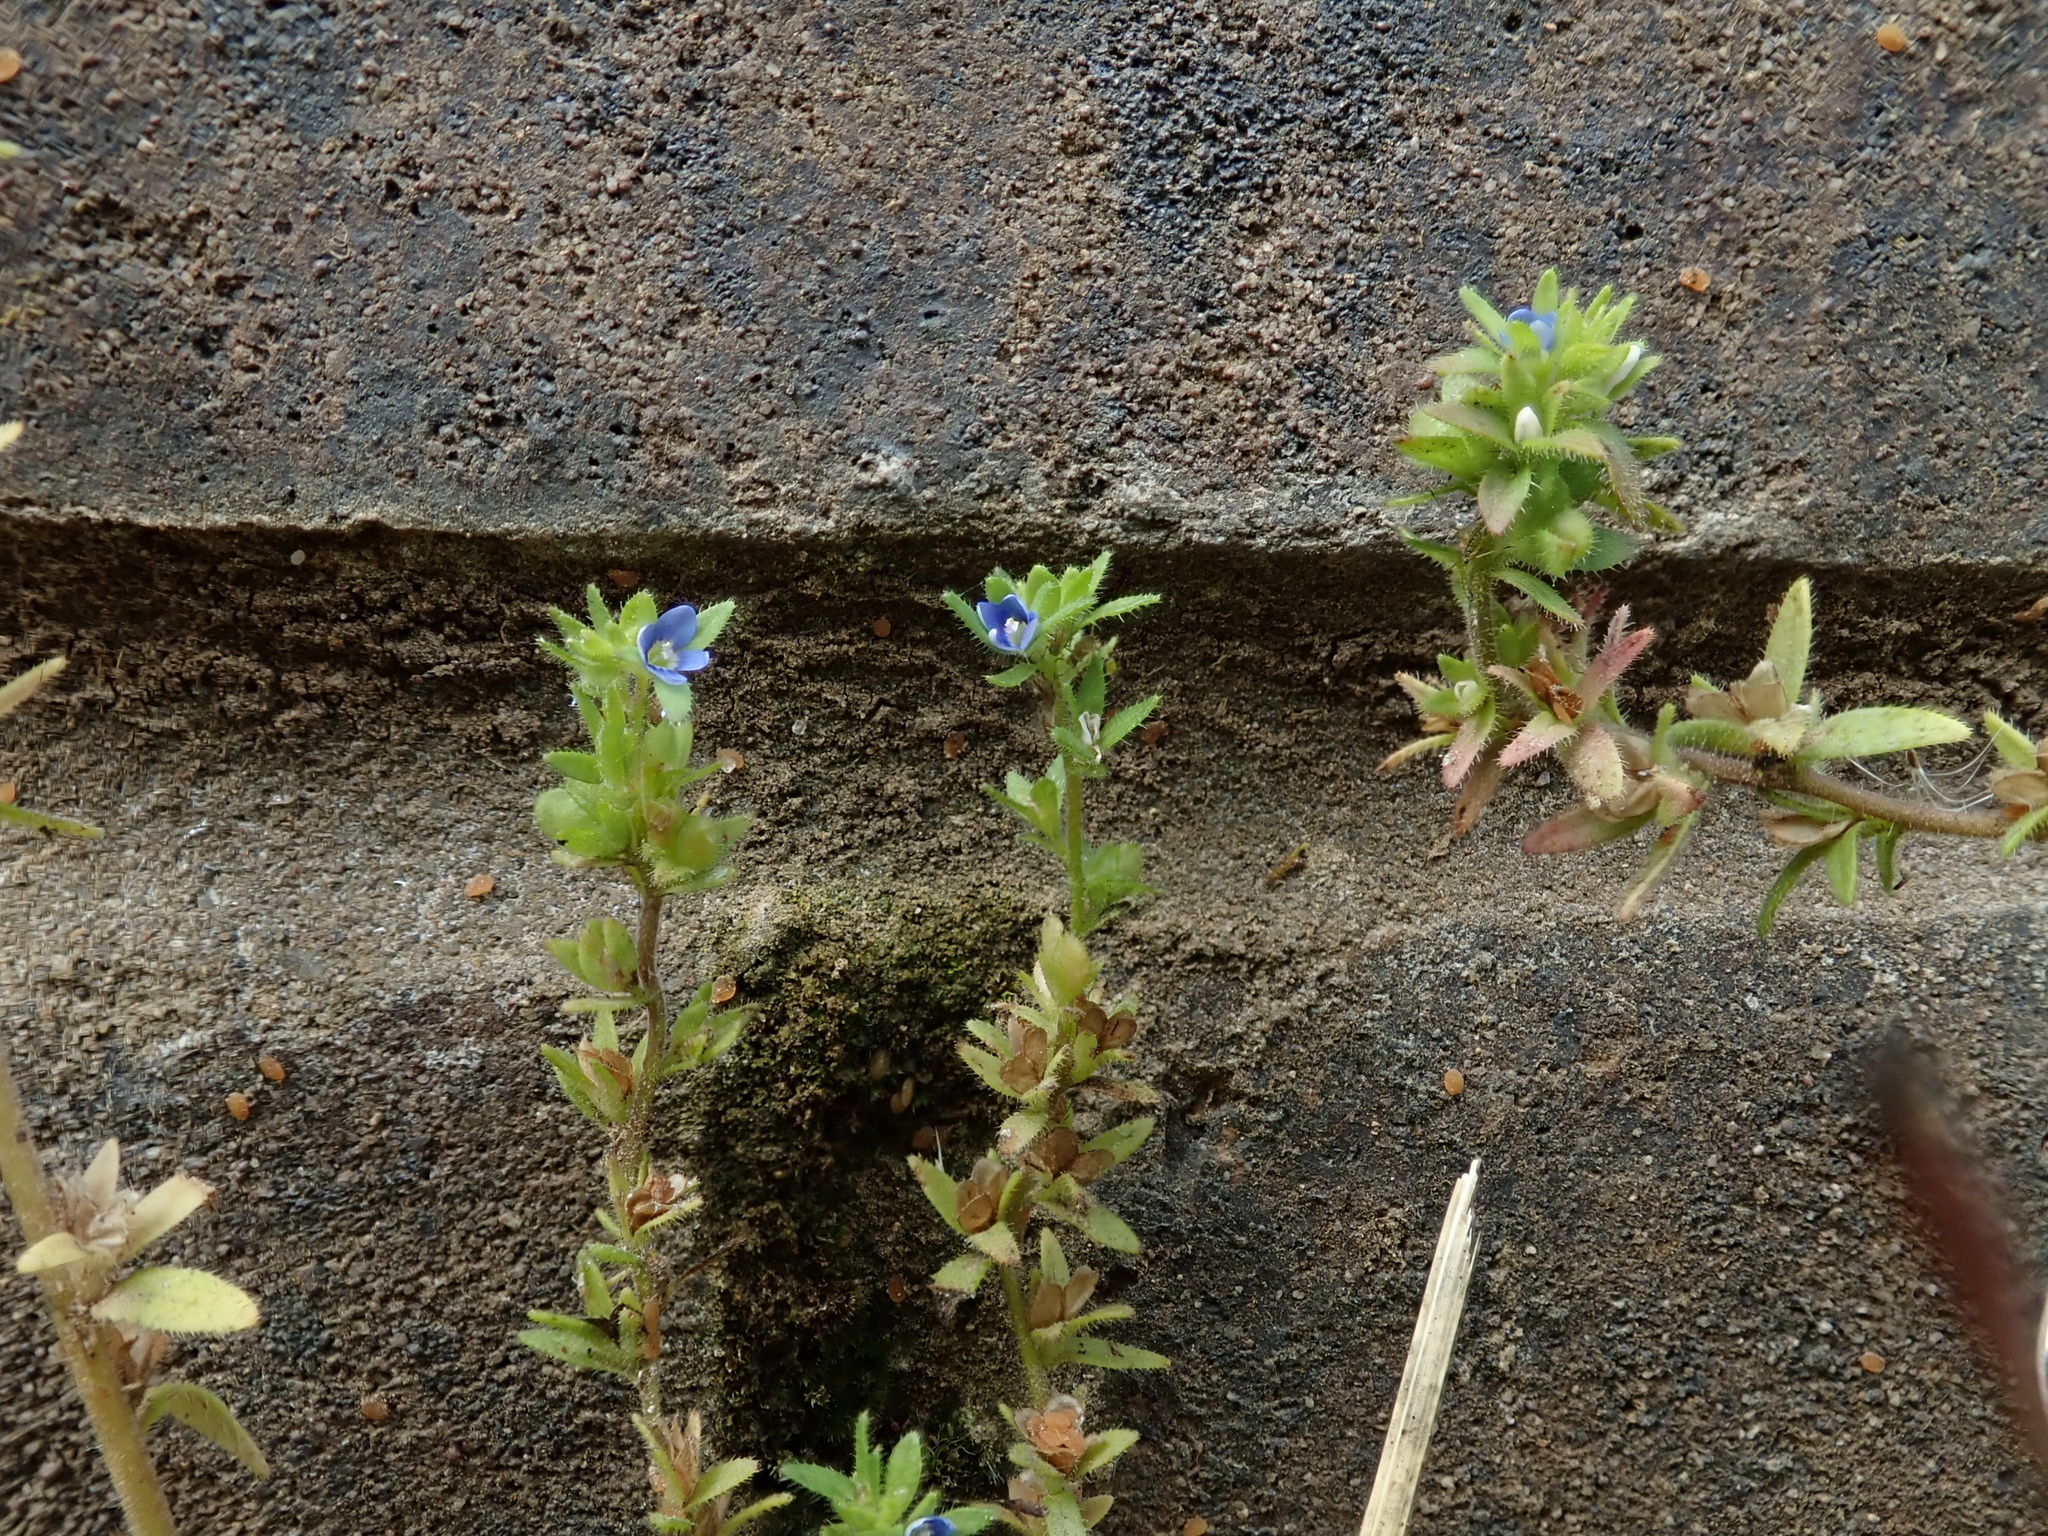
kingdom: Plantae
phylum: Tracheophyta
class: Magnoliopsida
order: Lamiales
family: Plantaginaceae
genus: Veronica
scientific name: Veronica arvensis
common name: Corn speedwell
